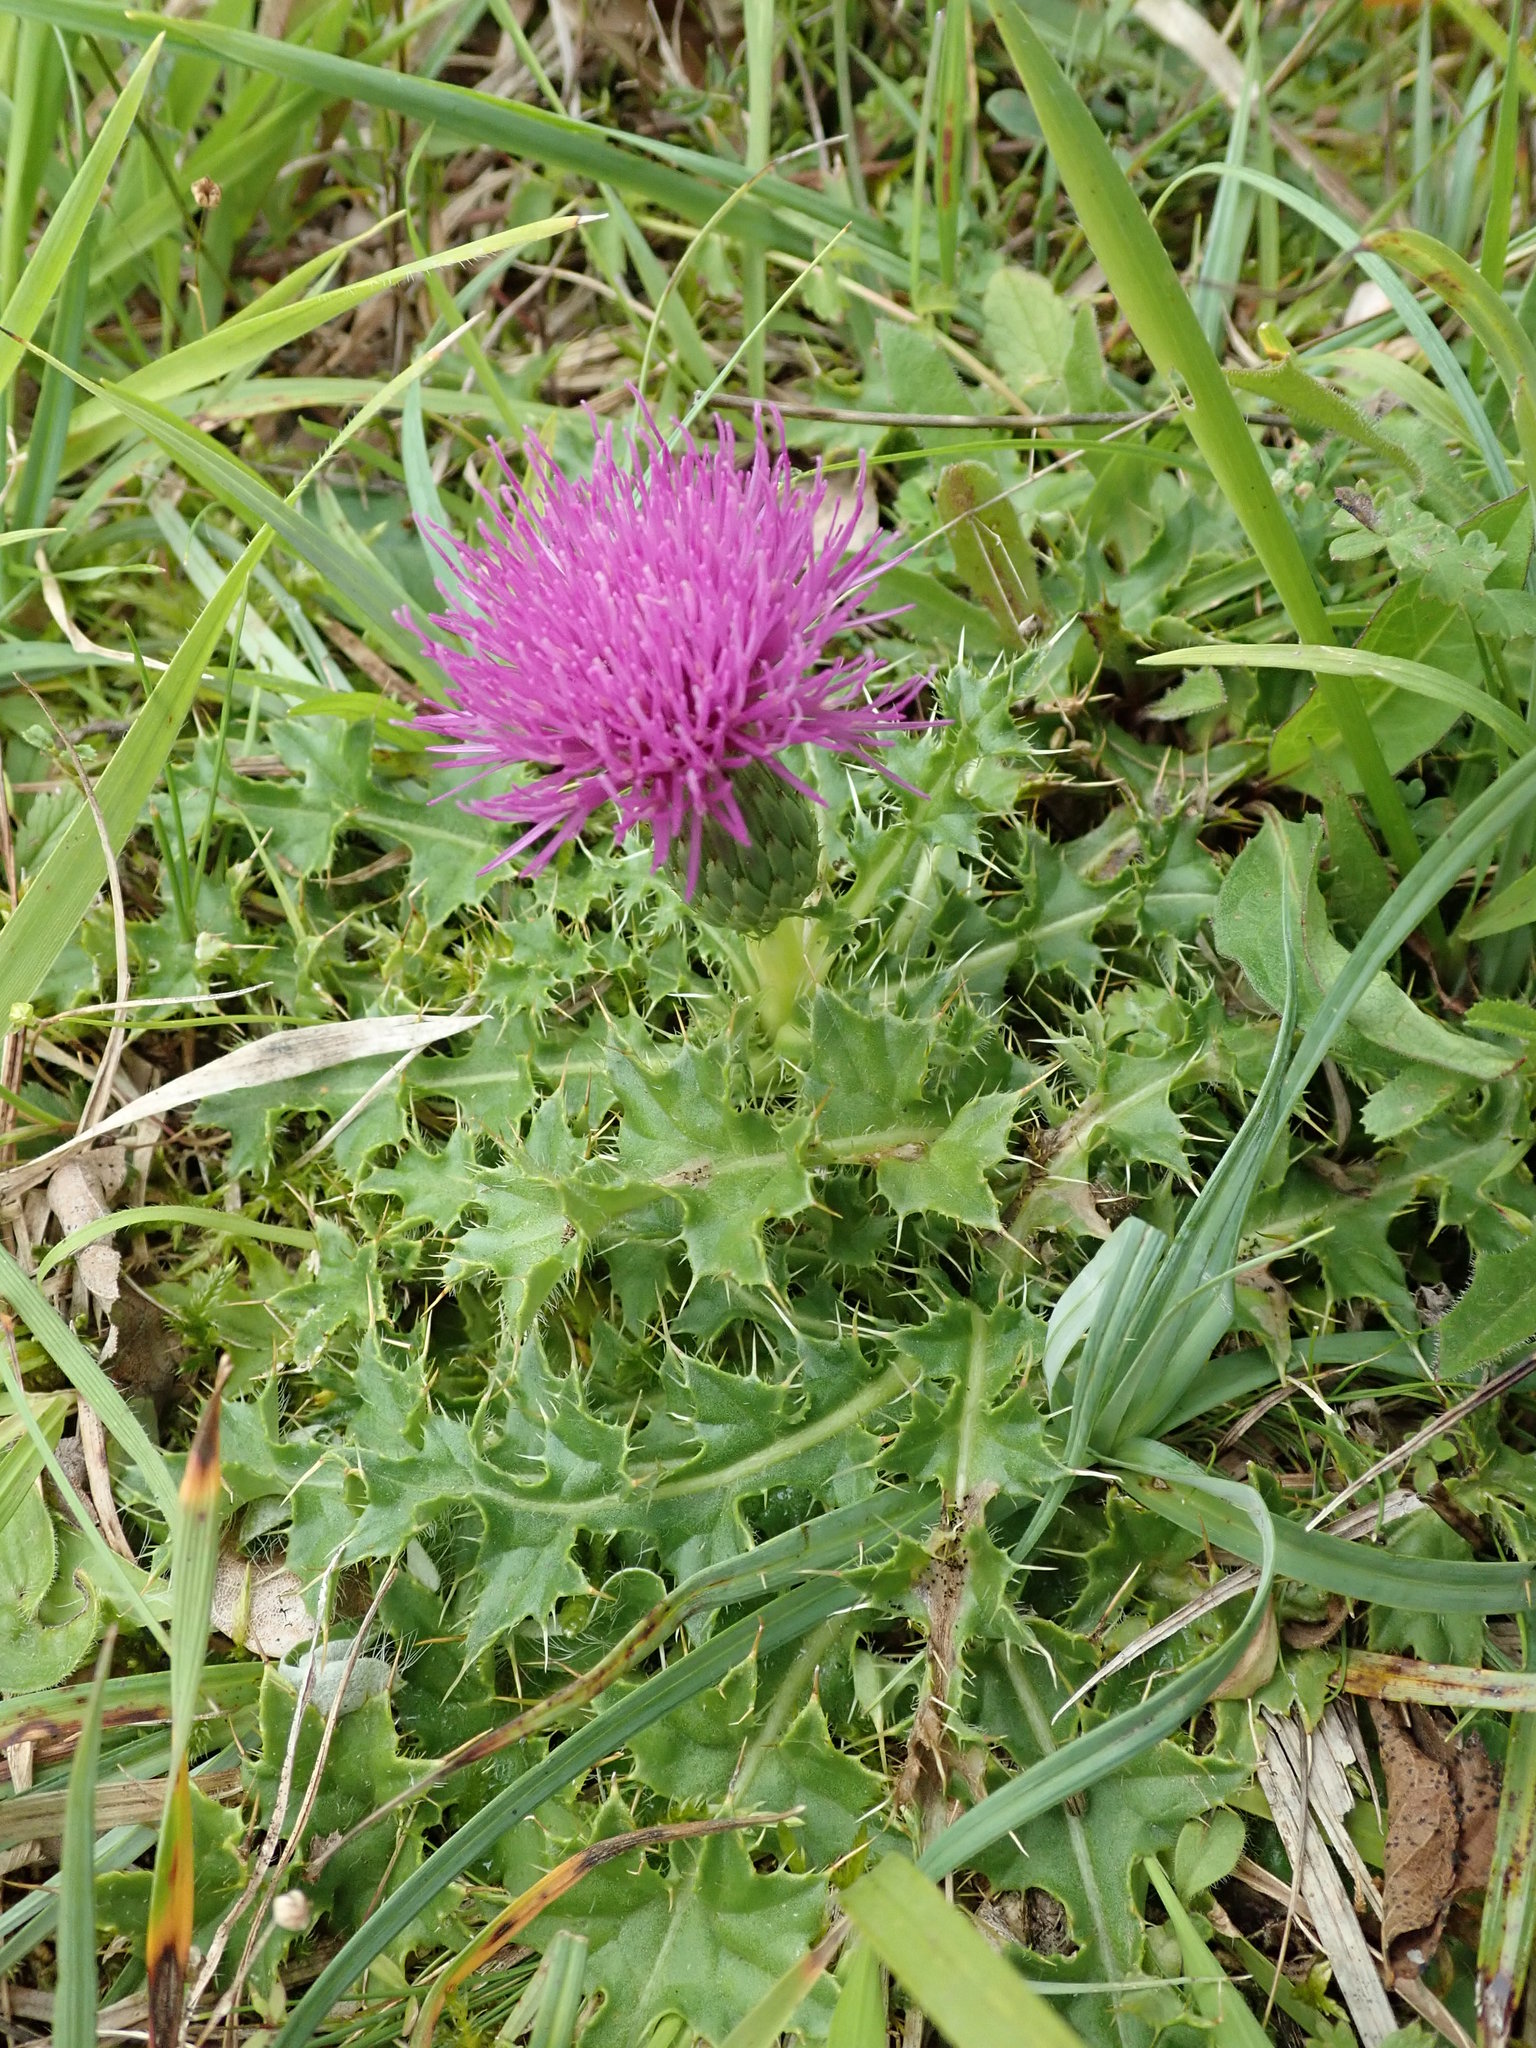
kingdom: Plantae
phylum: Tracheophyta
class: Magnoliopsida
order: Asterales
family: Asteraceae
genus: Cirsium
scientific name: Cirsium acaulon
